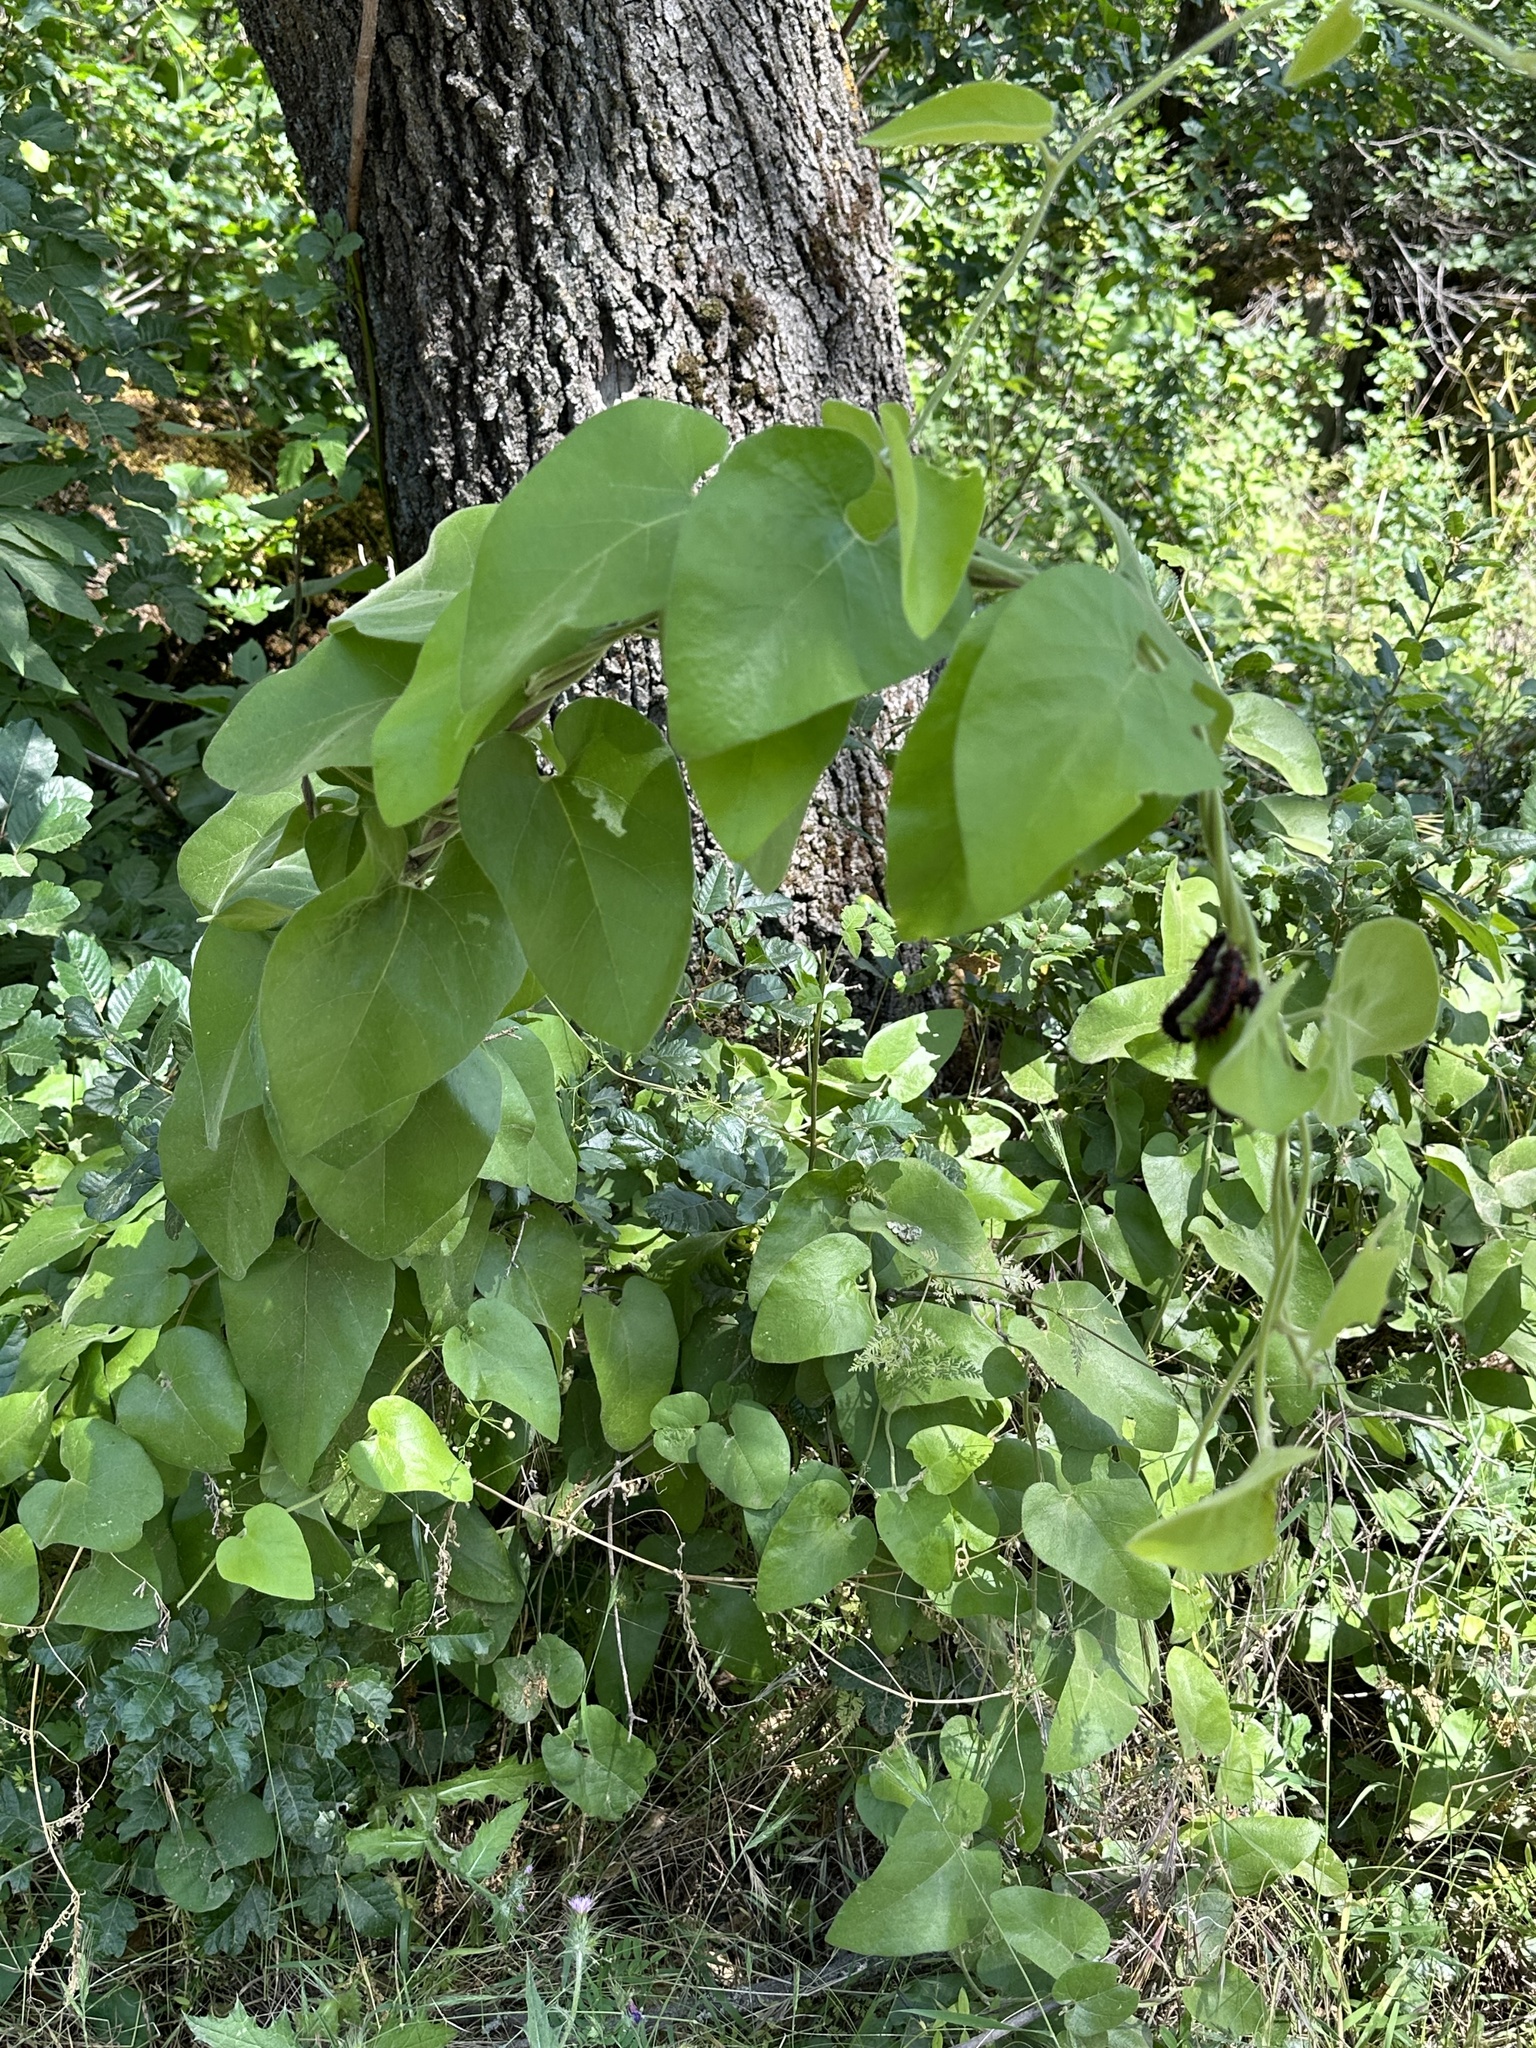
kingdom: Plantae
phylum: Tracheophyta
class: Magnoliopsida
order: Piperales
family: Aristolochiaceae
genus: Isotrema
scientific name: Isotrema californicum
